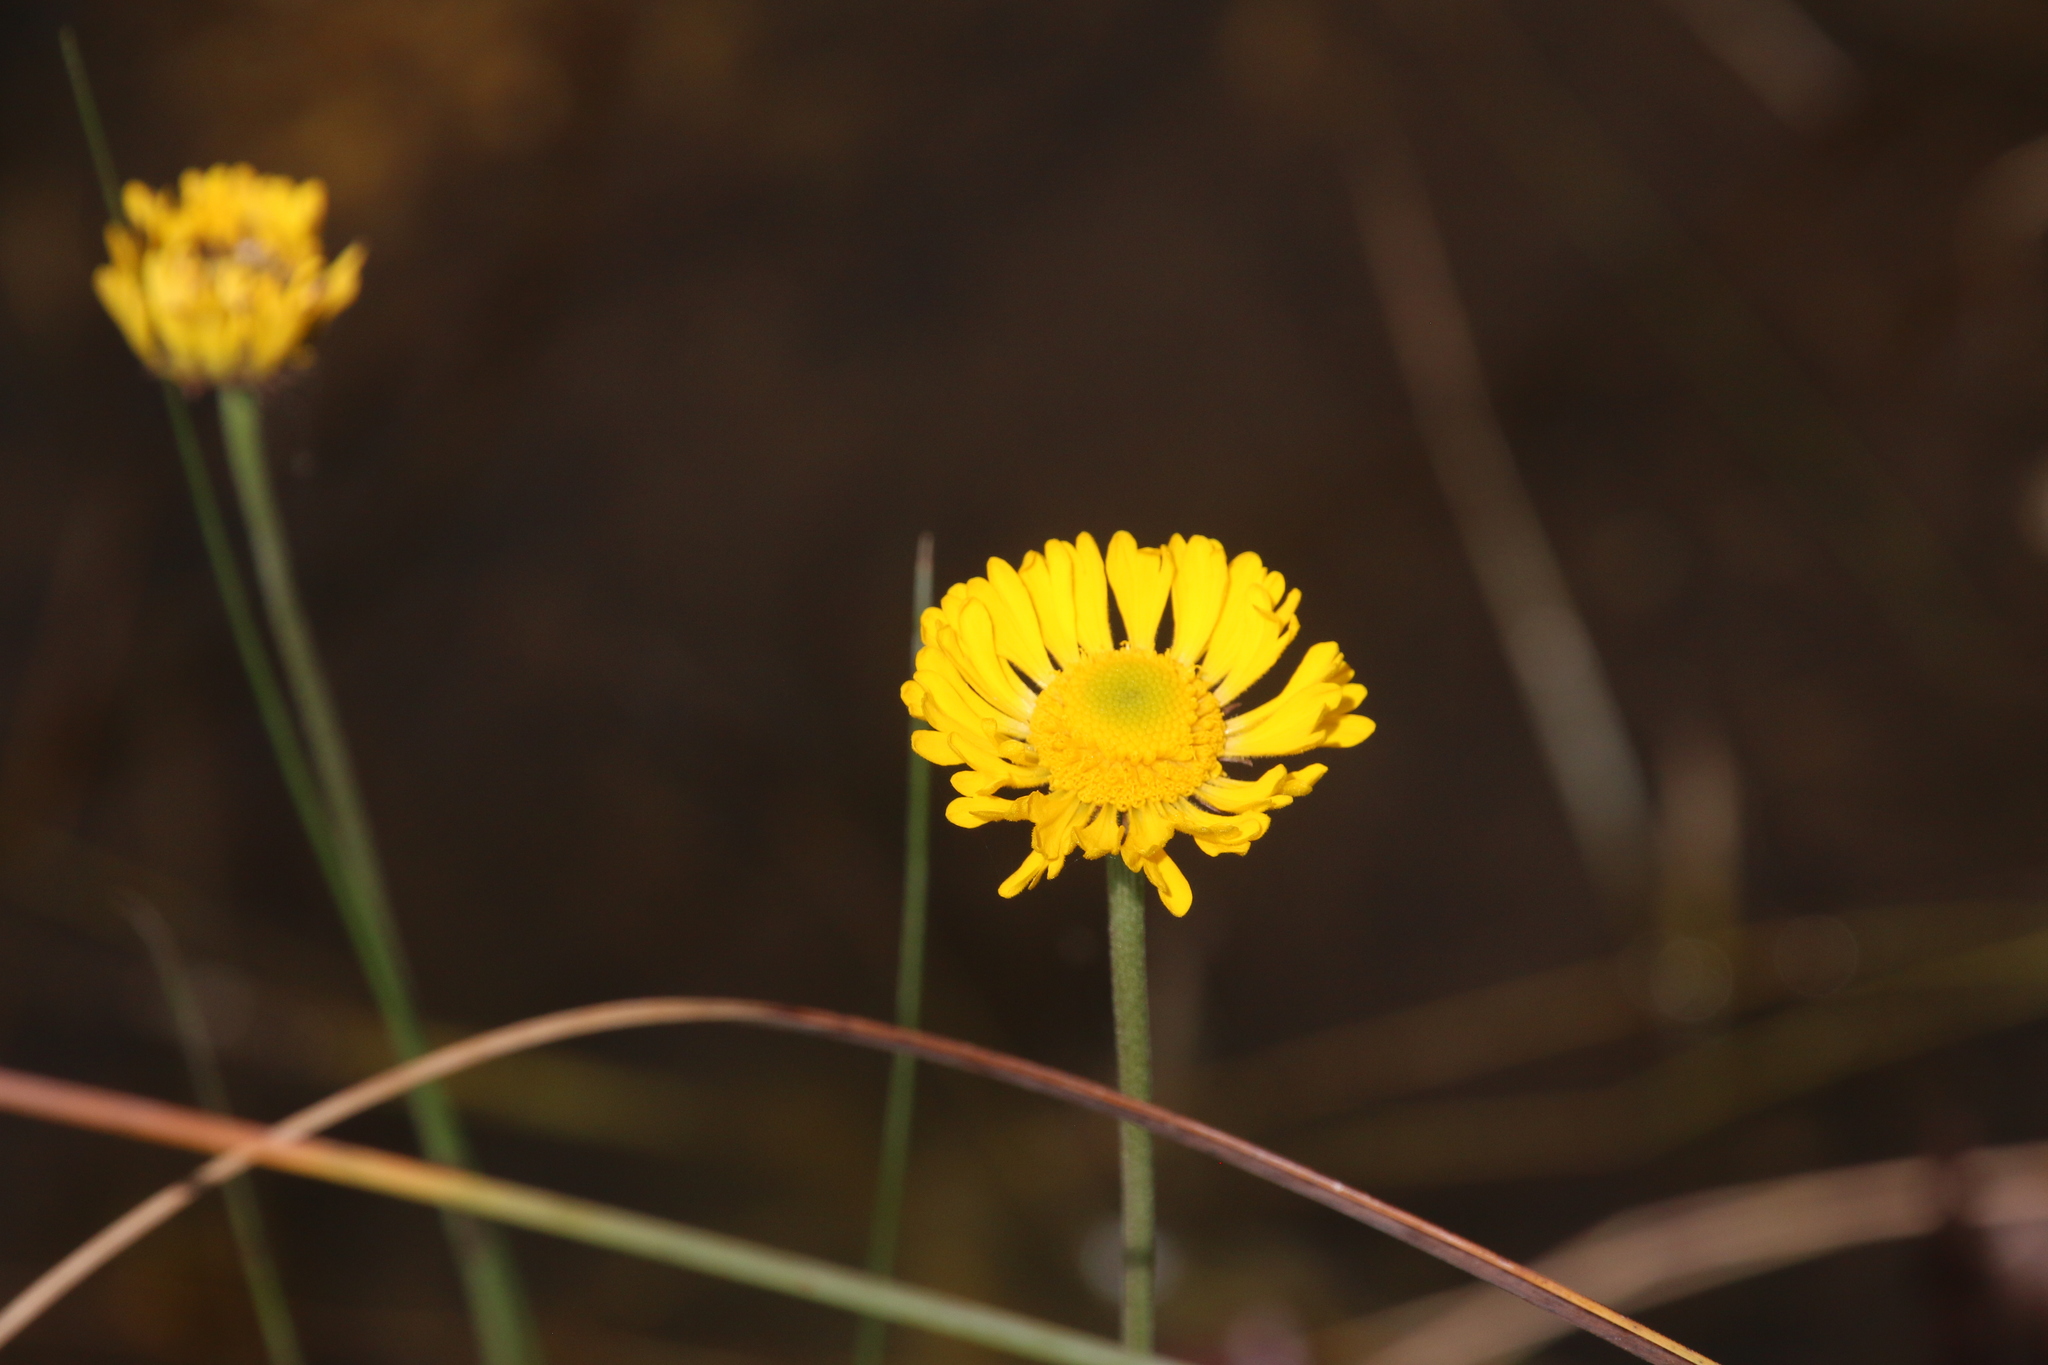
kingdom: Plantae
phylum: Tracheophyta
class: Magnoliopsida
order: Asterales
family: Asteraceae
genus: Helenium
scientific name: Helenium pinnatifidum
